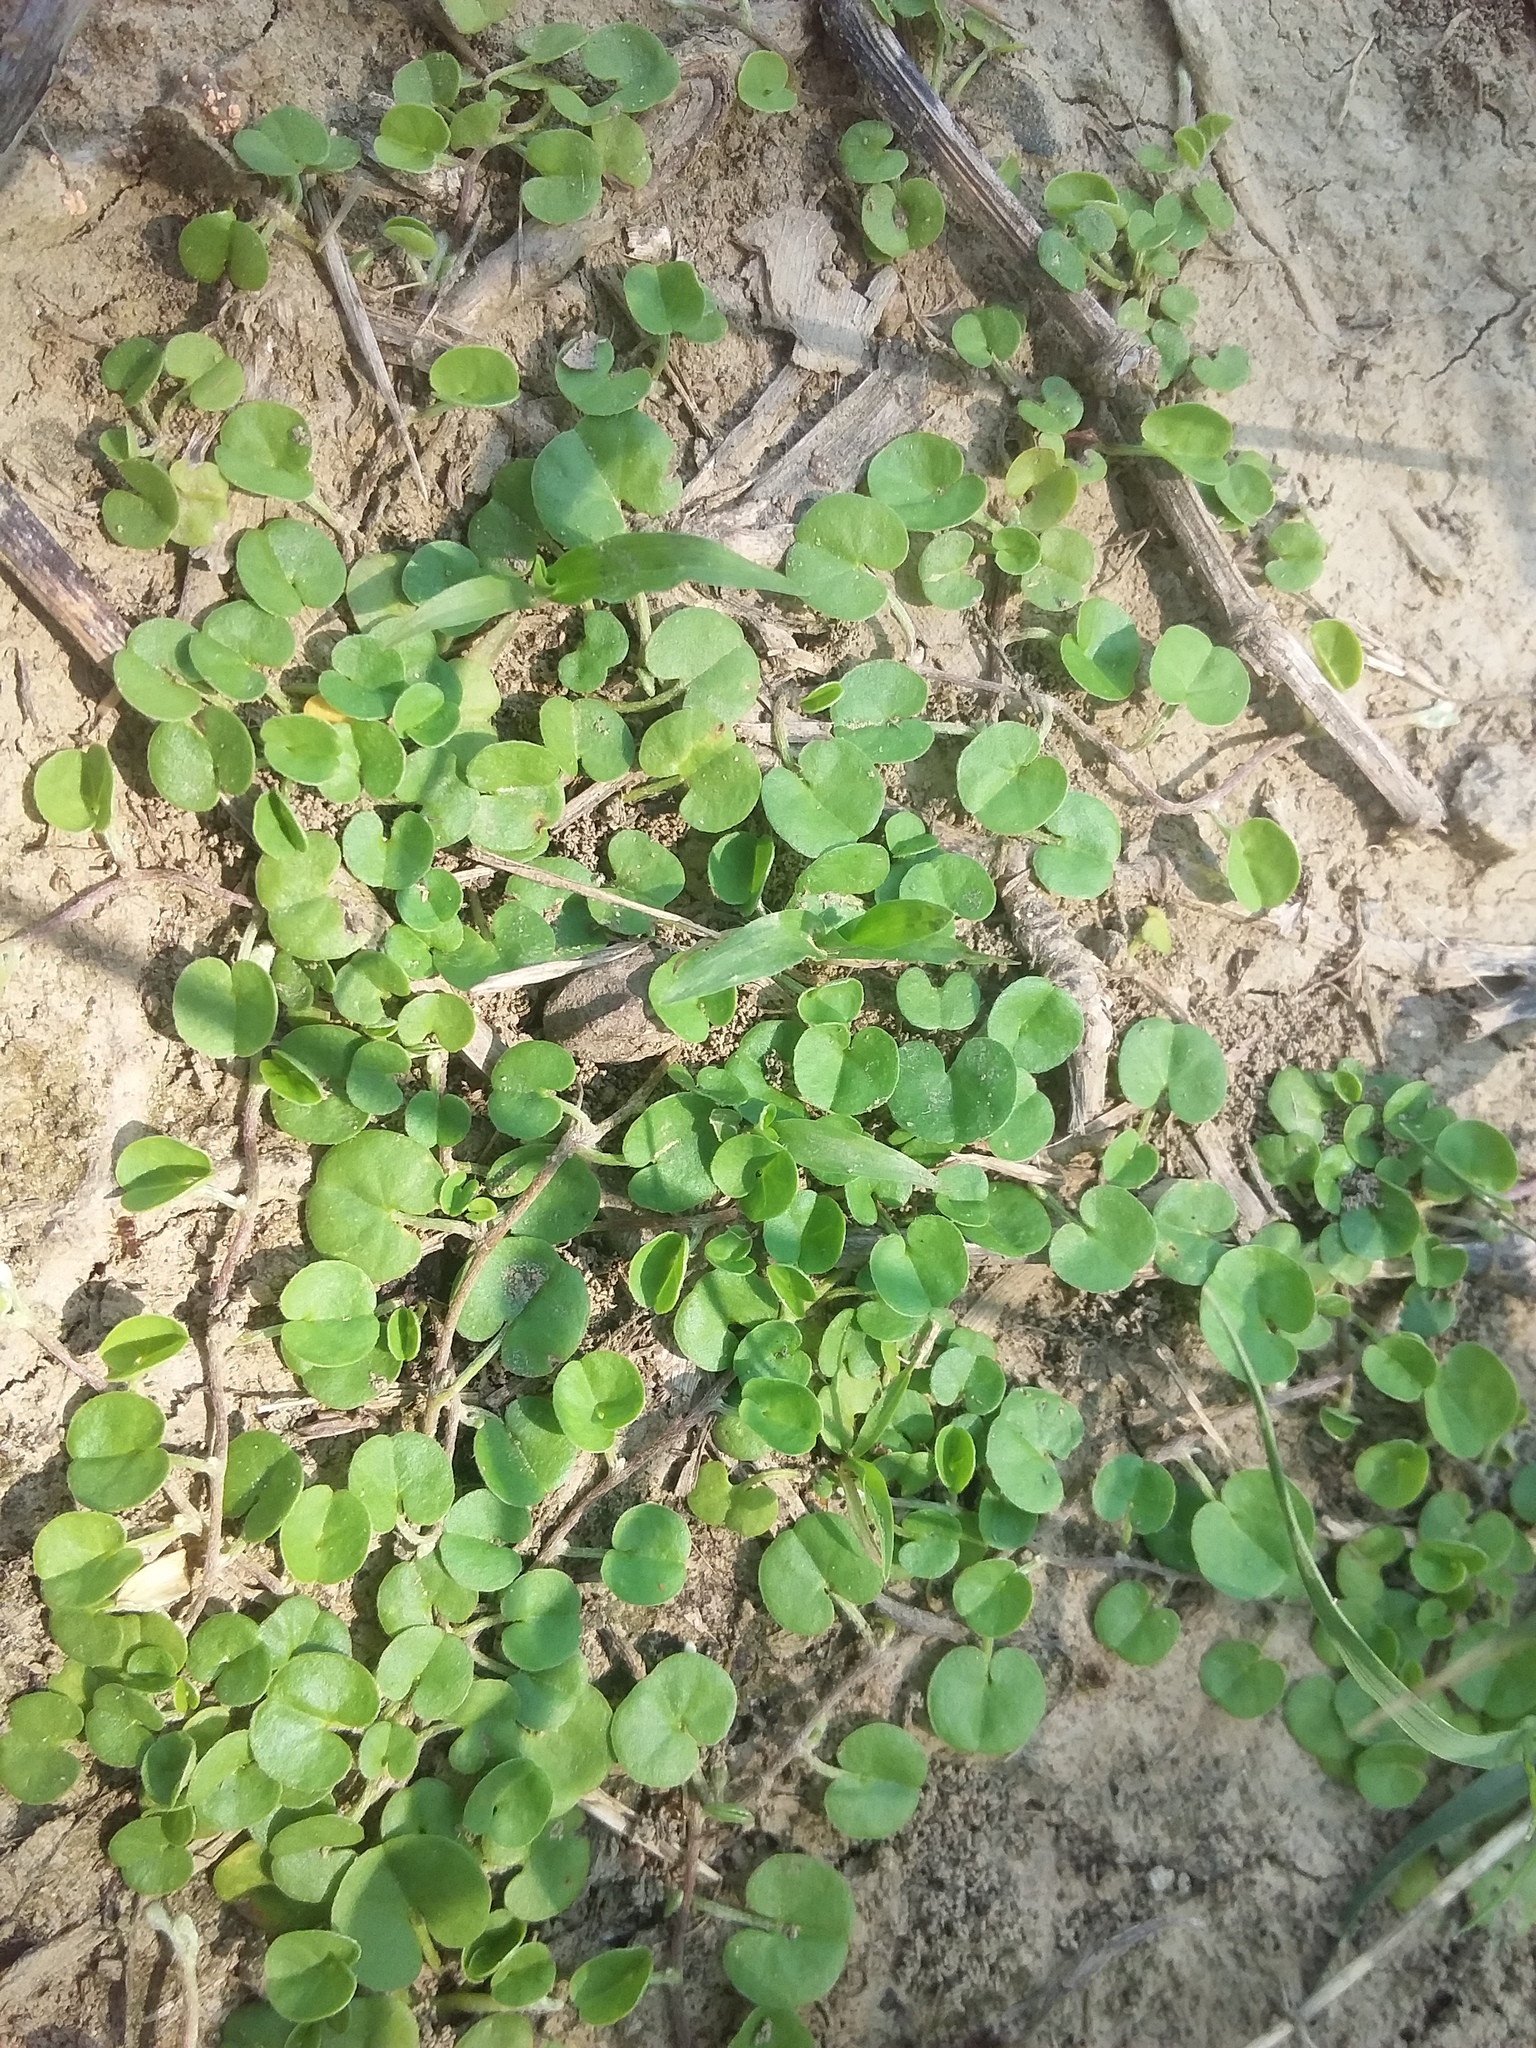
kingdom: Plantae
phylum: Tracheophyta
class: Magnoliopsida
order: Solanales
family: Convolvulaceae
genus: Dichondra
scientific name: Dichondra micrantha
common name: Kidneyweed
